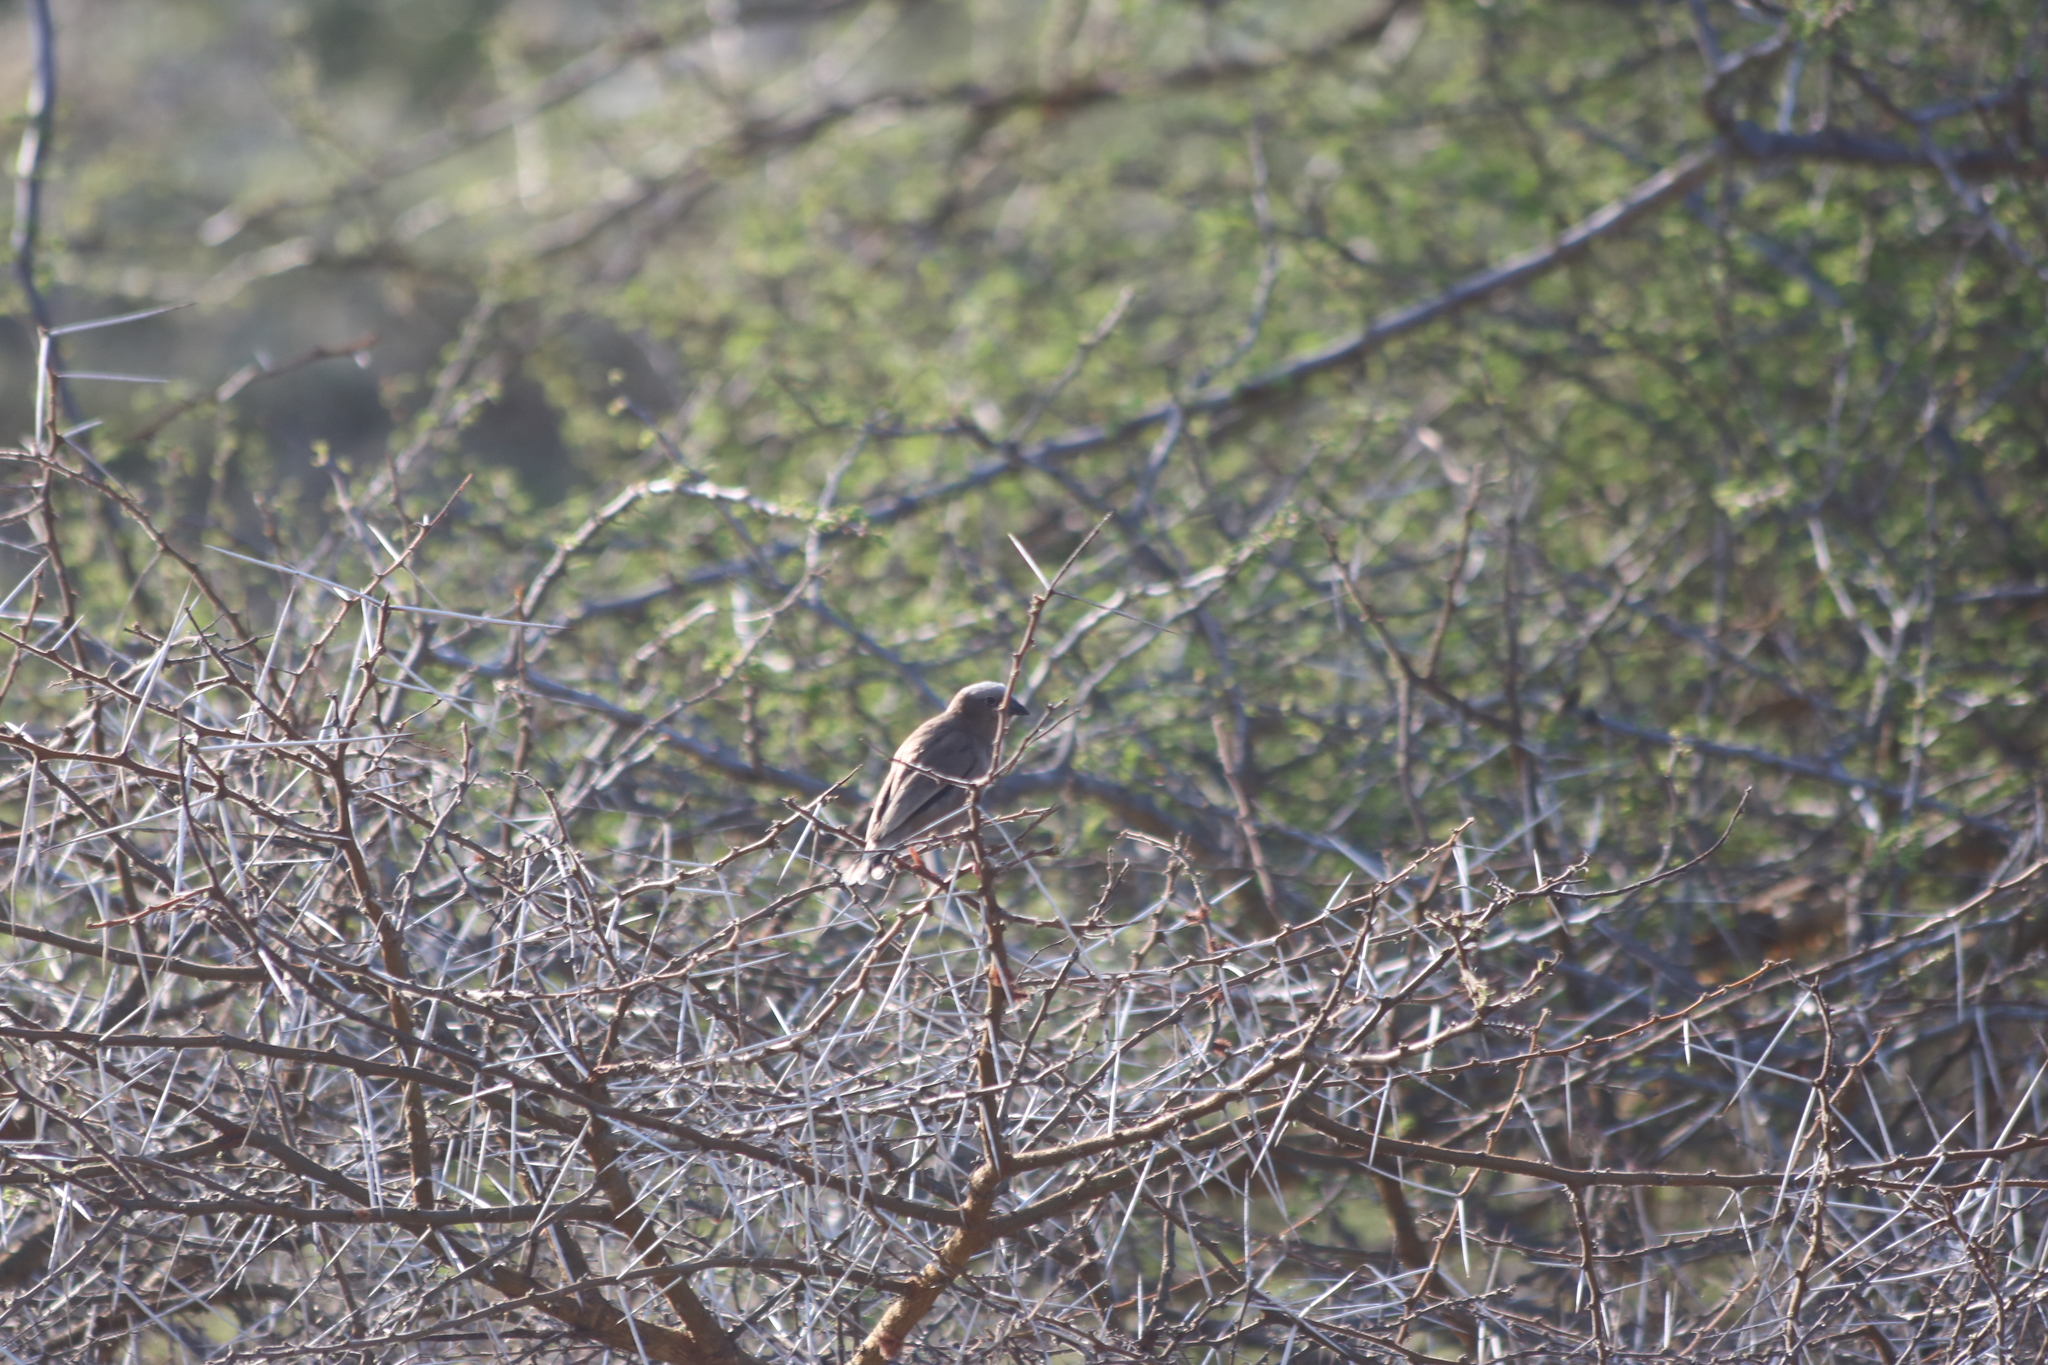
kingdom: Animalia
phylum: Chordata
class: Aves
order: Passeriformes
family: Passeridae
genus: Pseudonigrita
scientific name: Pseudonigrita arnaudi
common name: Grey-capped social weaver
